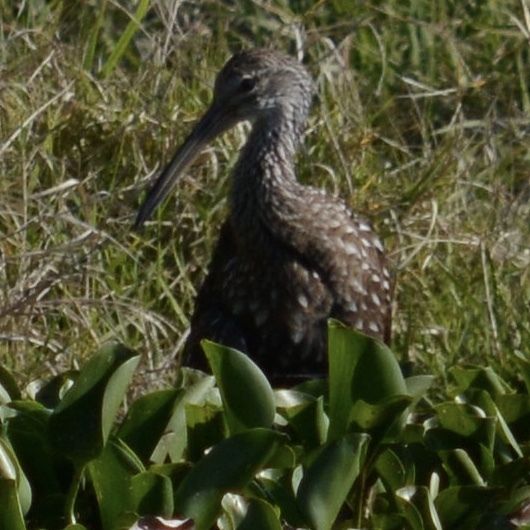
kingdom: Animalia
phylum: Chordata
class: Aves
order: Gruiformes
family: Aramidae
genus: Aramus
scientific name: Aramus guarauna
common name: Limpkin
